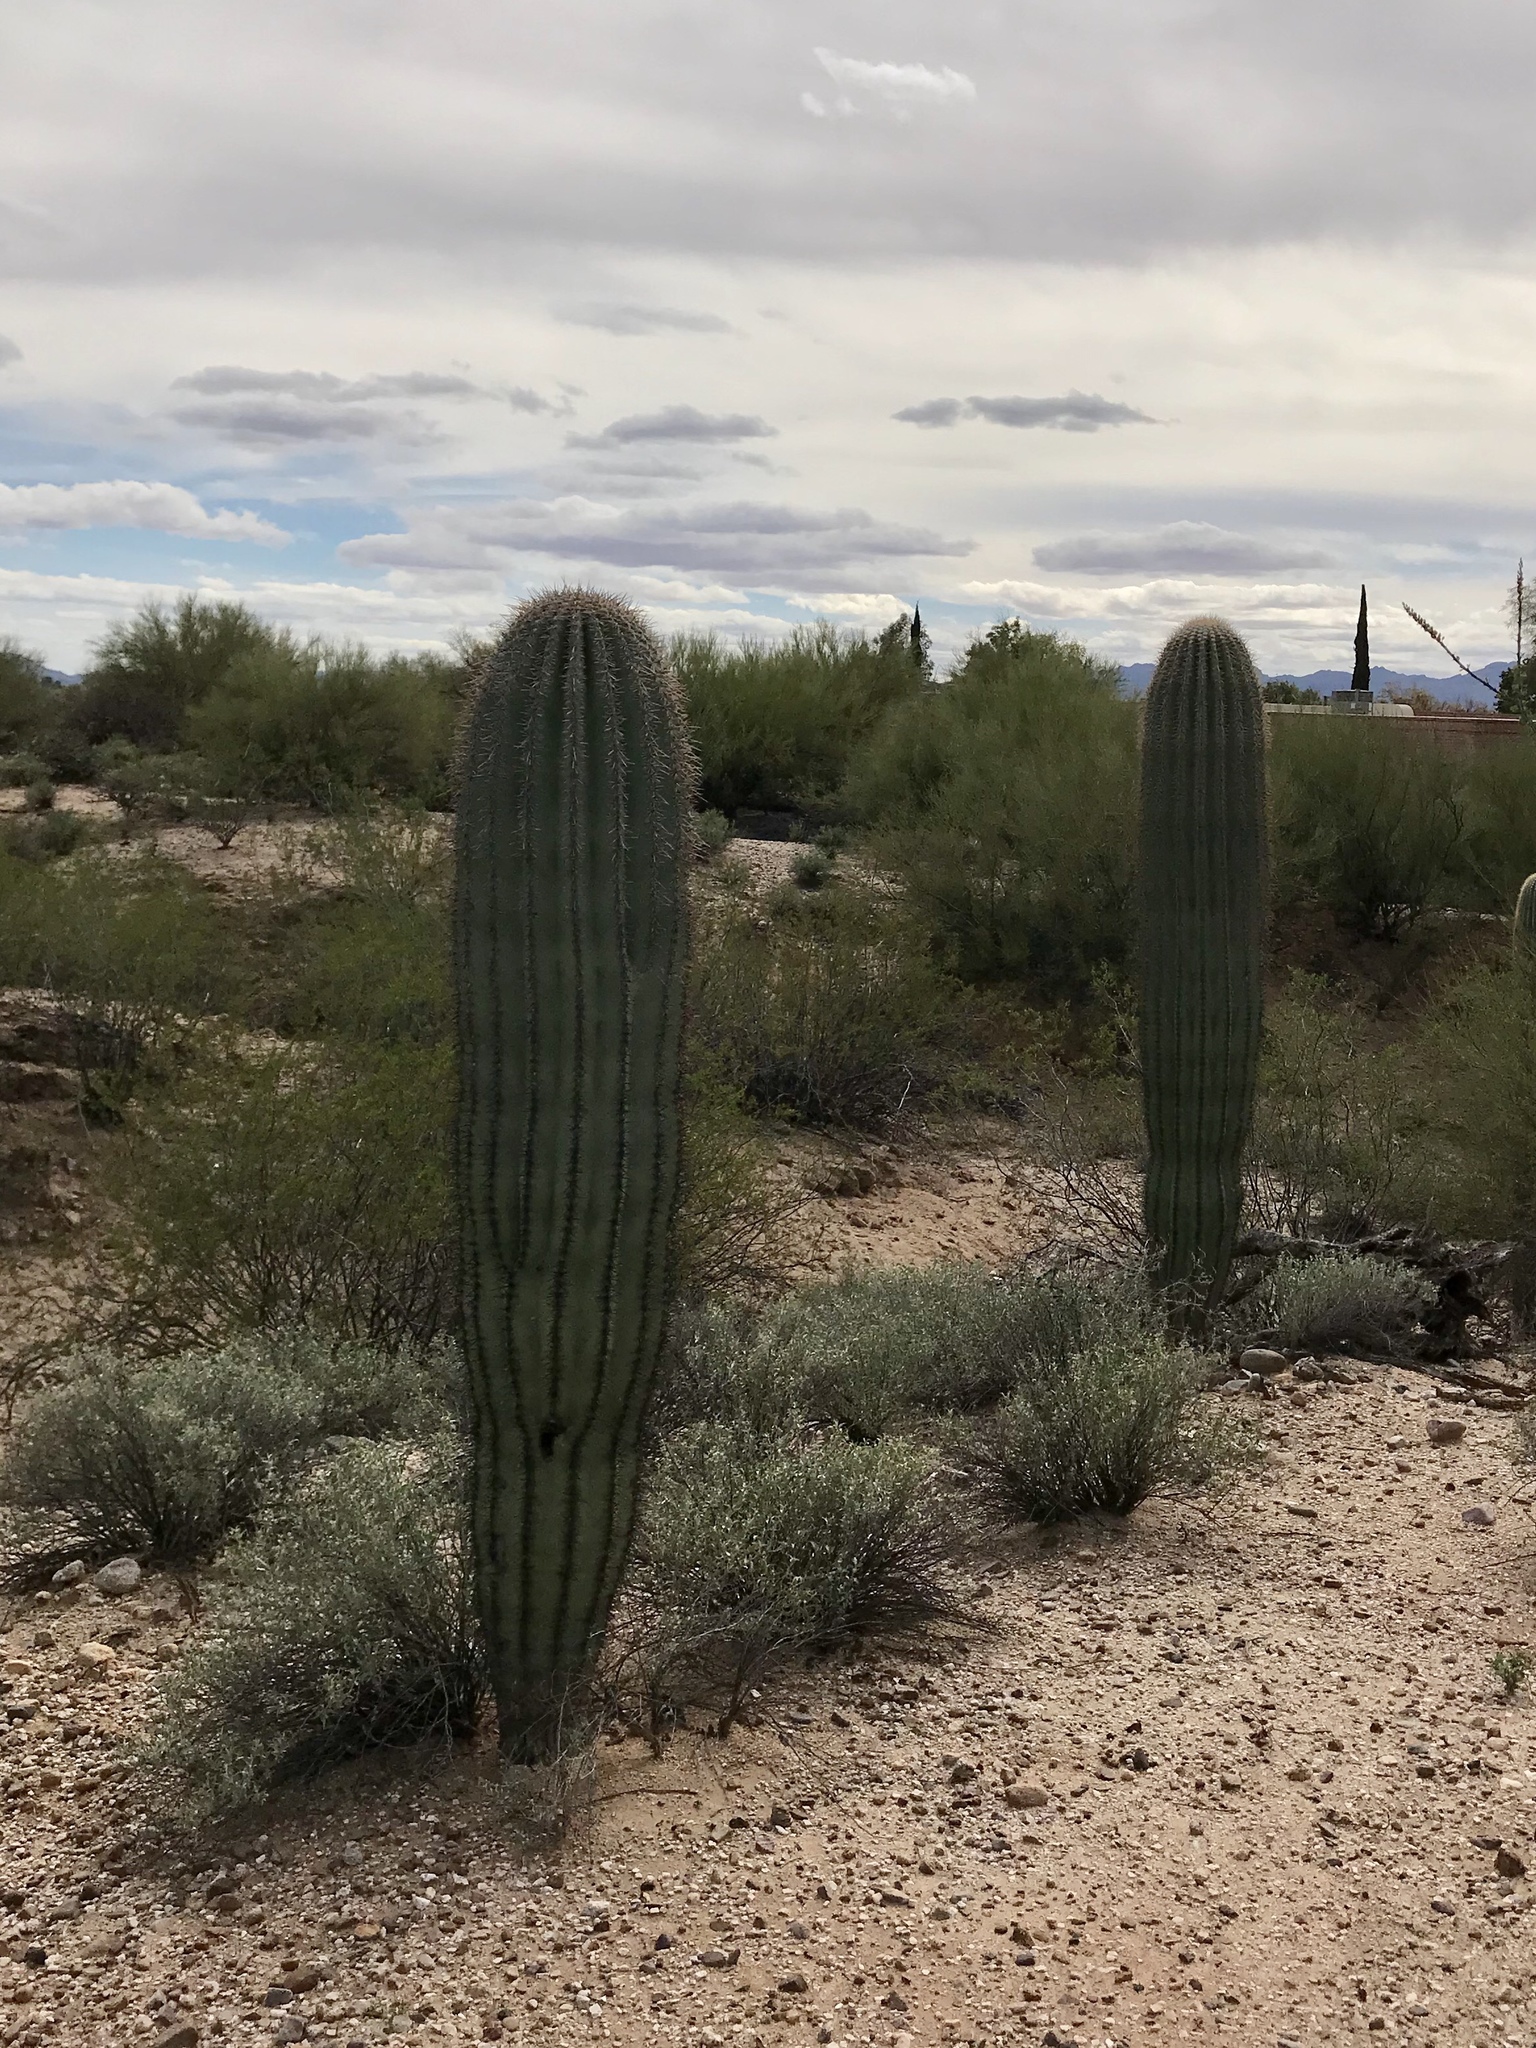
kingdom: Plantae
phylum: Tracheophyta
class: Magnoliopsida
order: Caryophyllales
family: Cactaceae
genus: Carnegiea
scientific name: Carnegiea gigantea
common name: Saguaro
